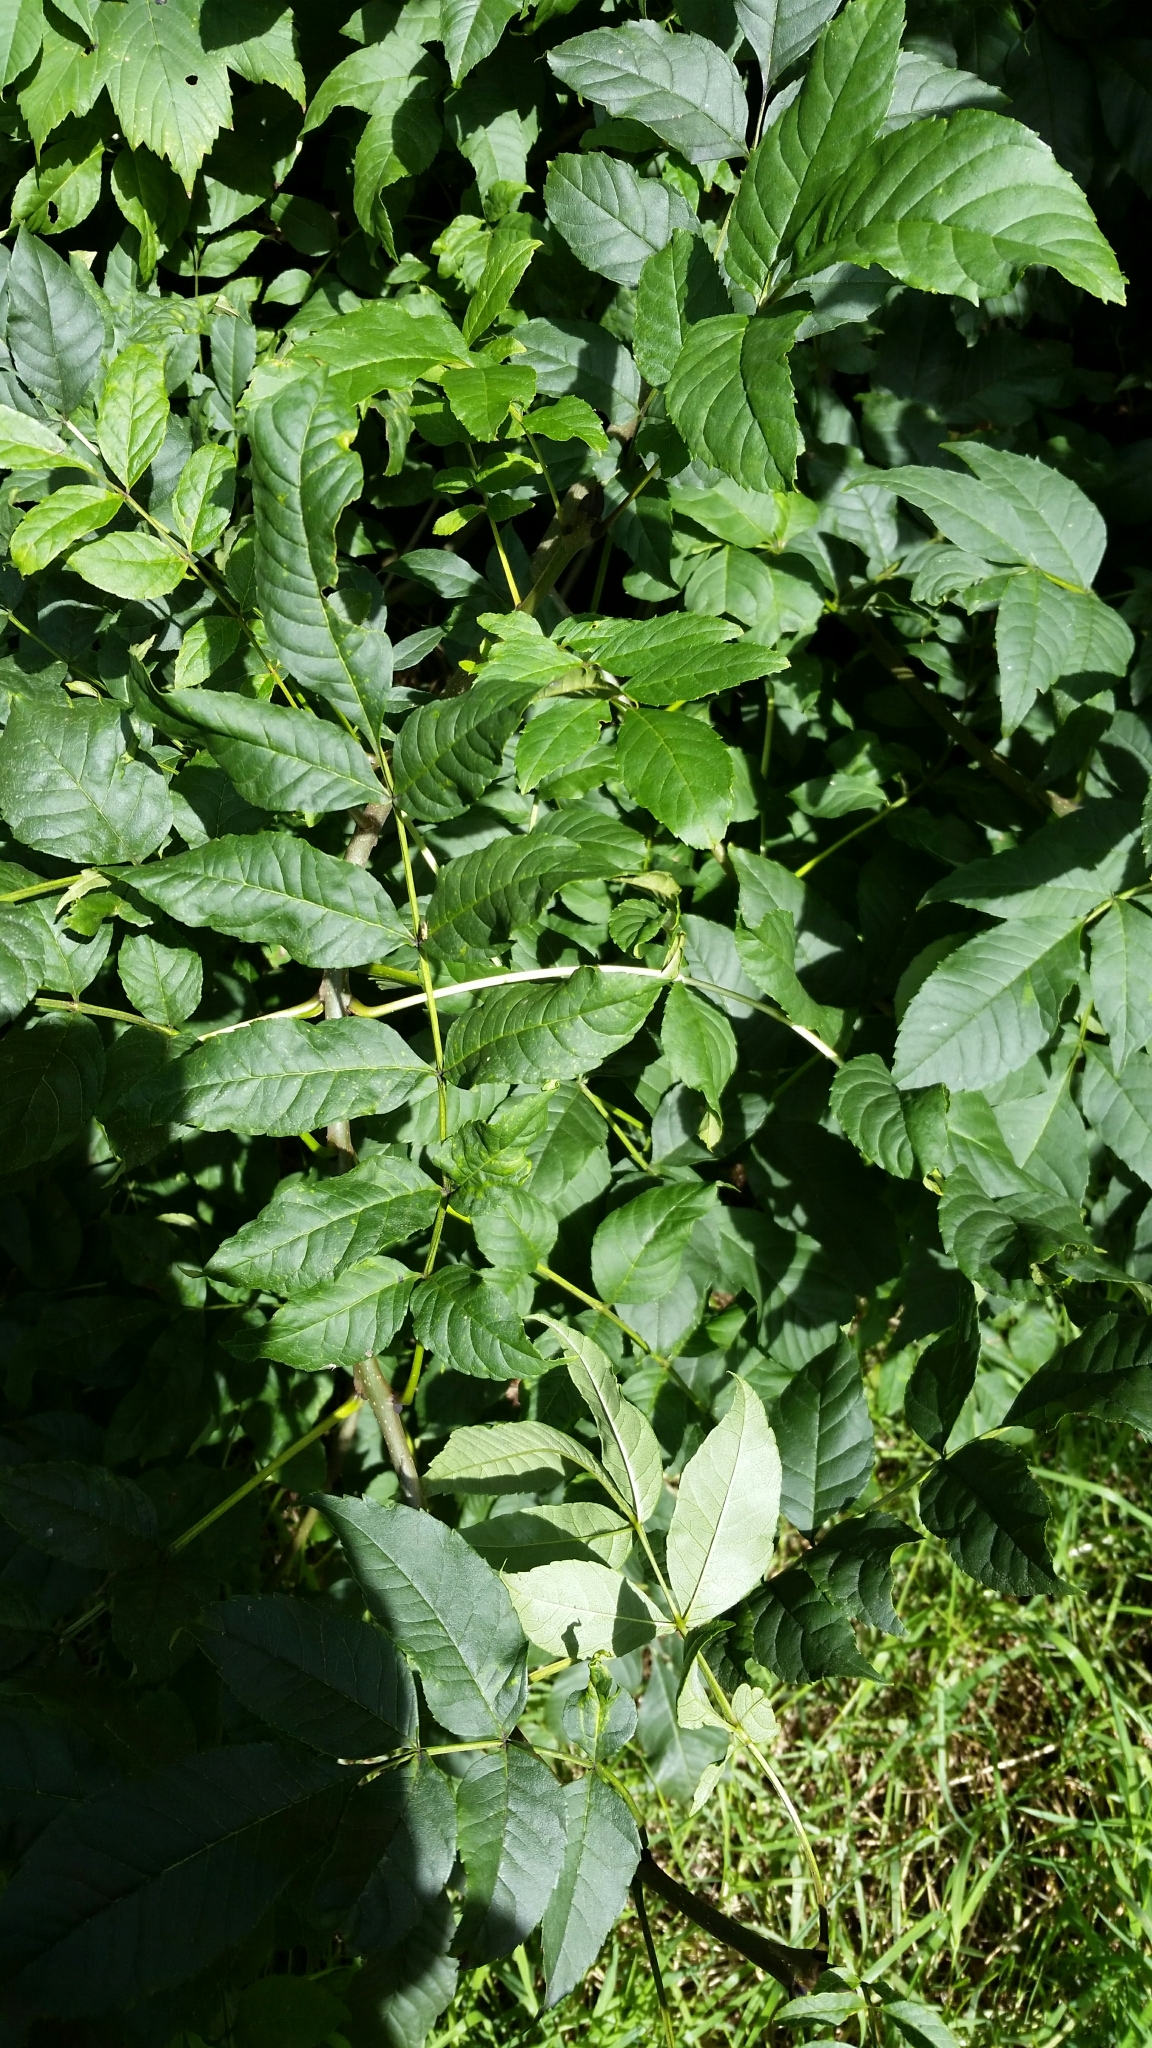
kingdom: Plantae
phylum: Tracheophyta
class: Magnoliopsida
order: Lamiales
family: Oleaceae
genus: Fraxinus
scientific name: Fraxinus excelsior
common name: European ash
